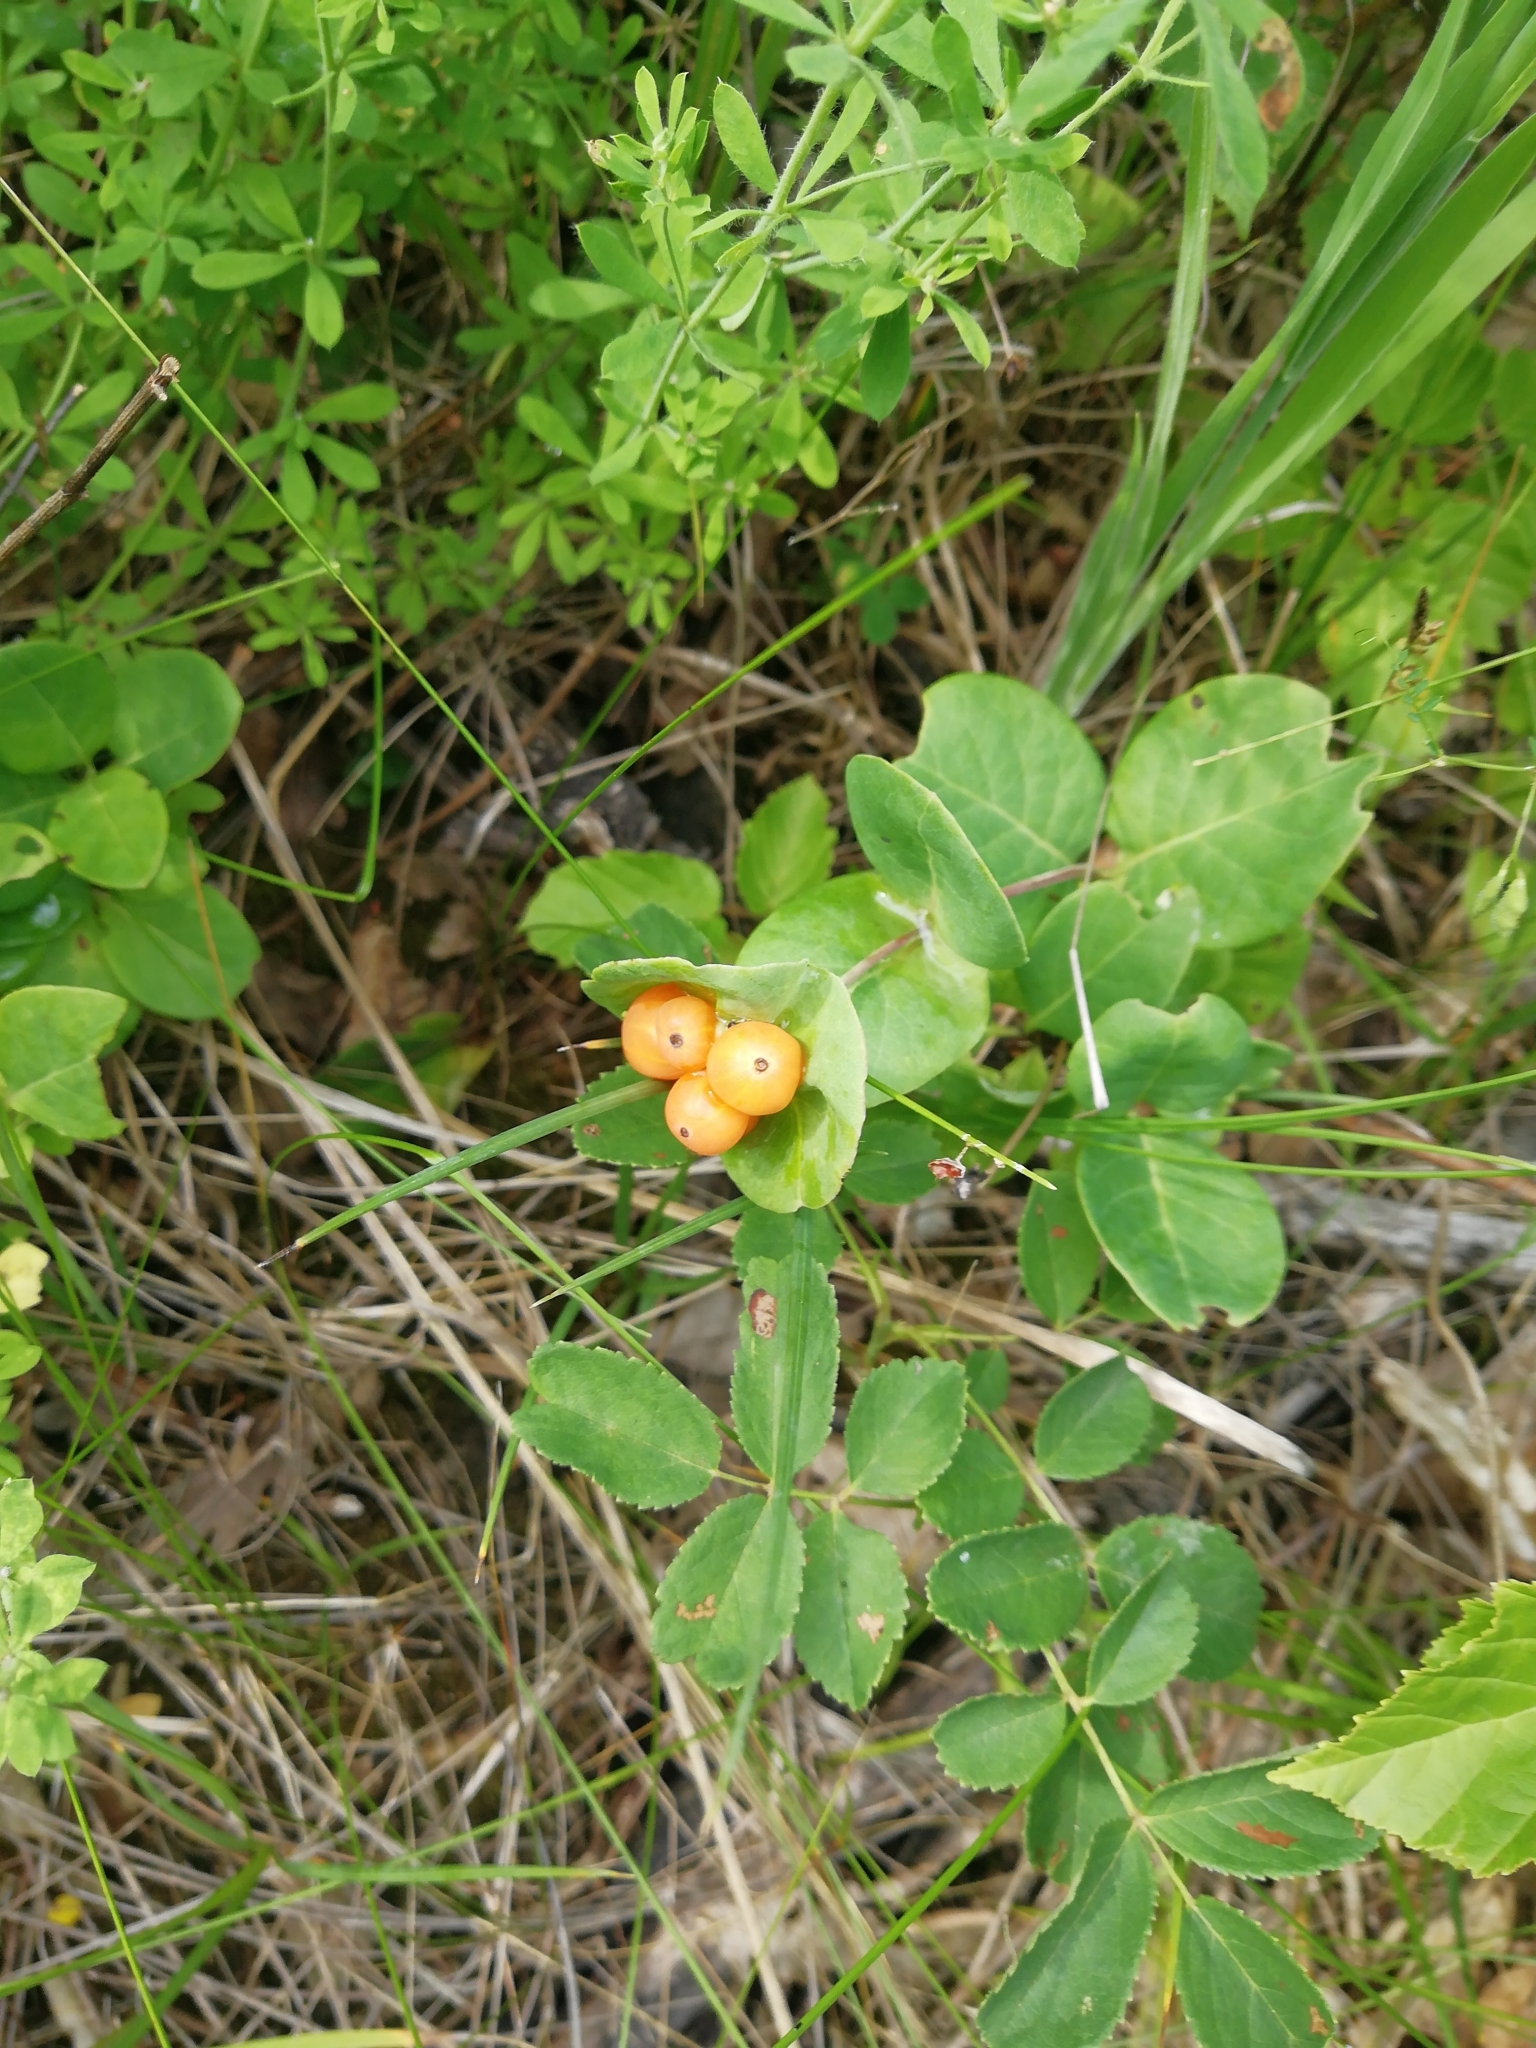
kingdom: Plantae
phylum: Tracheophyta
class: Magnoliopsida
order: Dipsacales
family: Caprifoliaceae
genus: Lonicera
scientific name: Lonicera caprifolium
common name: Perfoliate honeysuckle
